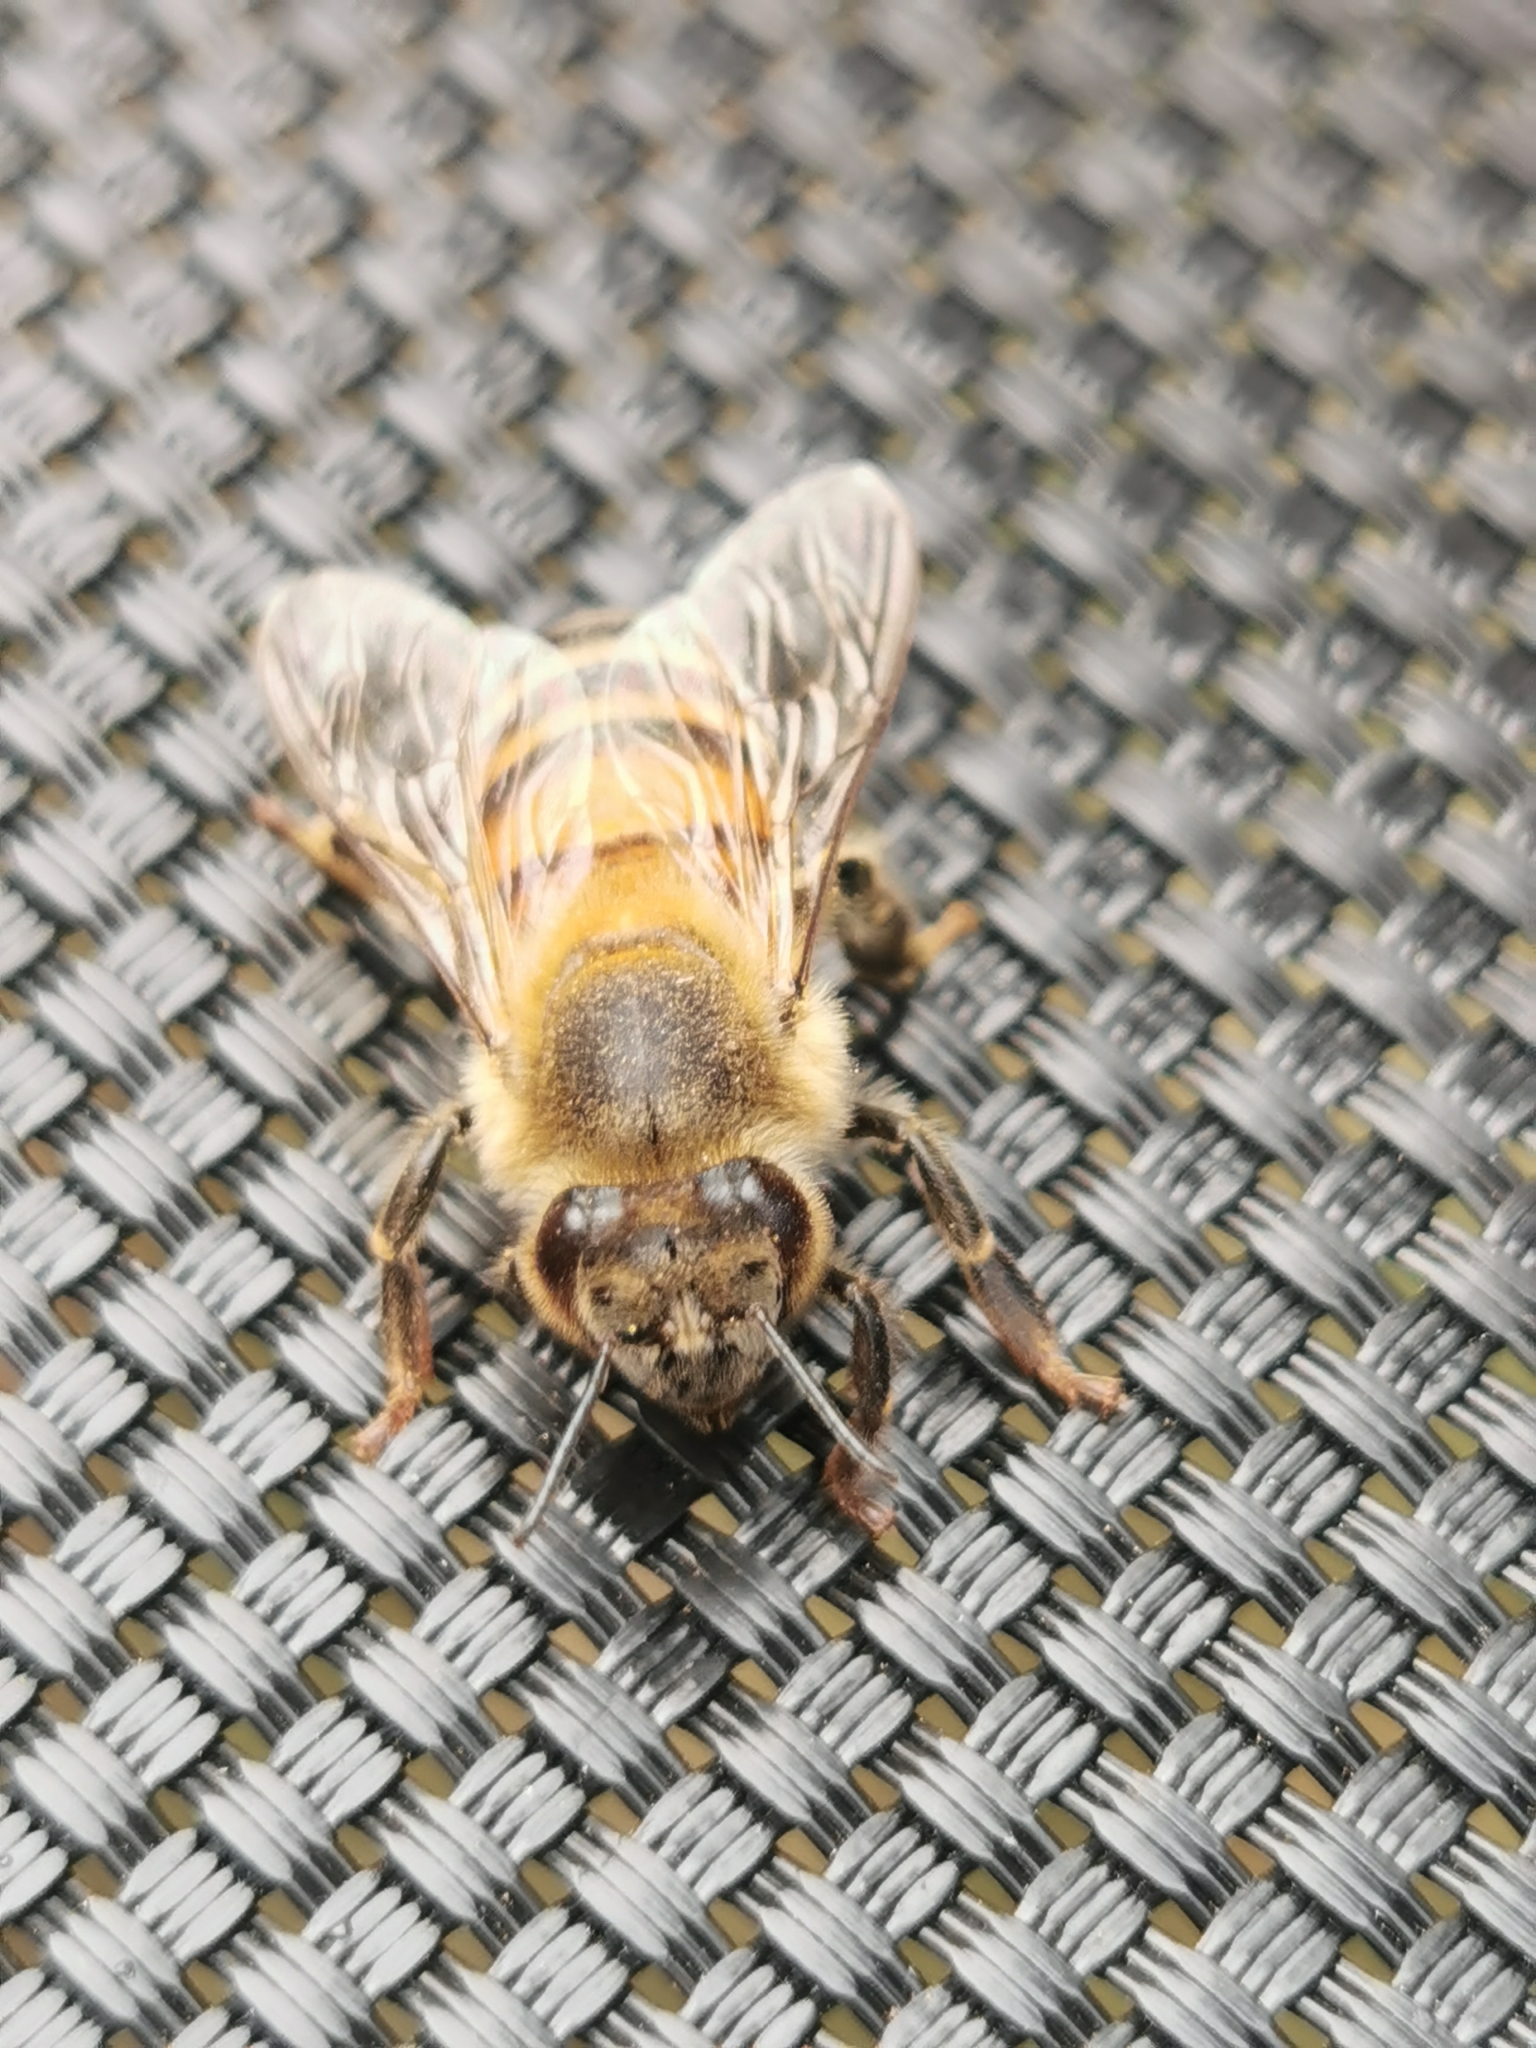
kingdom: Animalia
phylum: Arthropoda
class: Insecta
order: Hymenoptera
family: Apidae
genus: Apis
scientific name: Apis mellifera
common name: Honey bee
